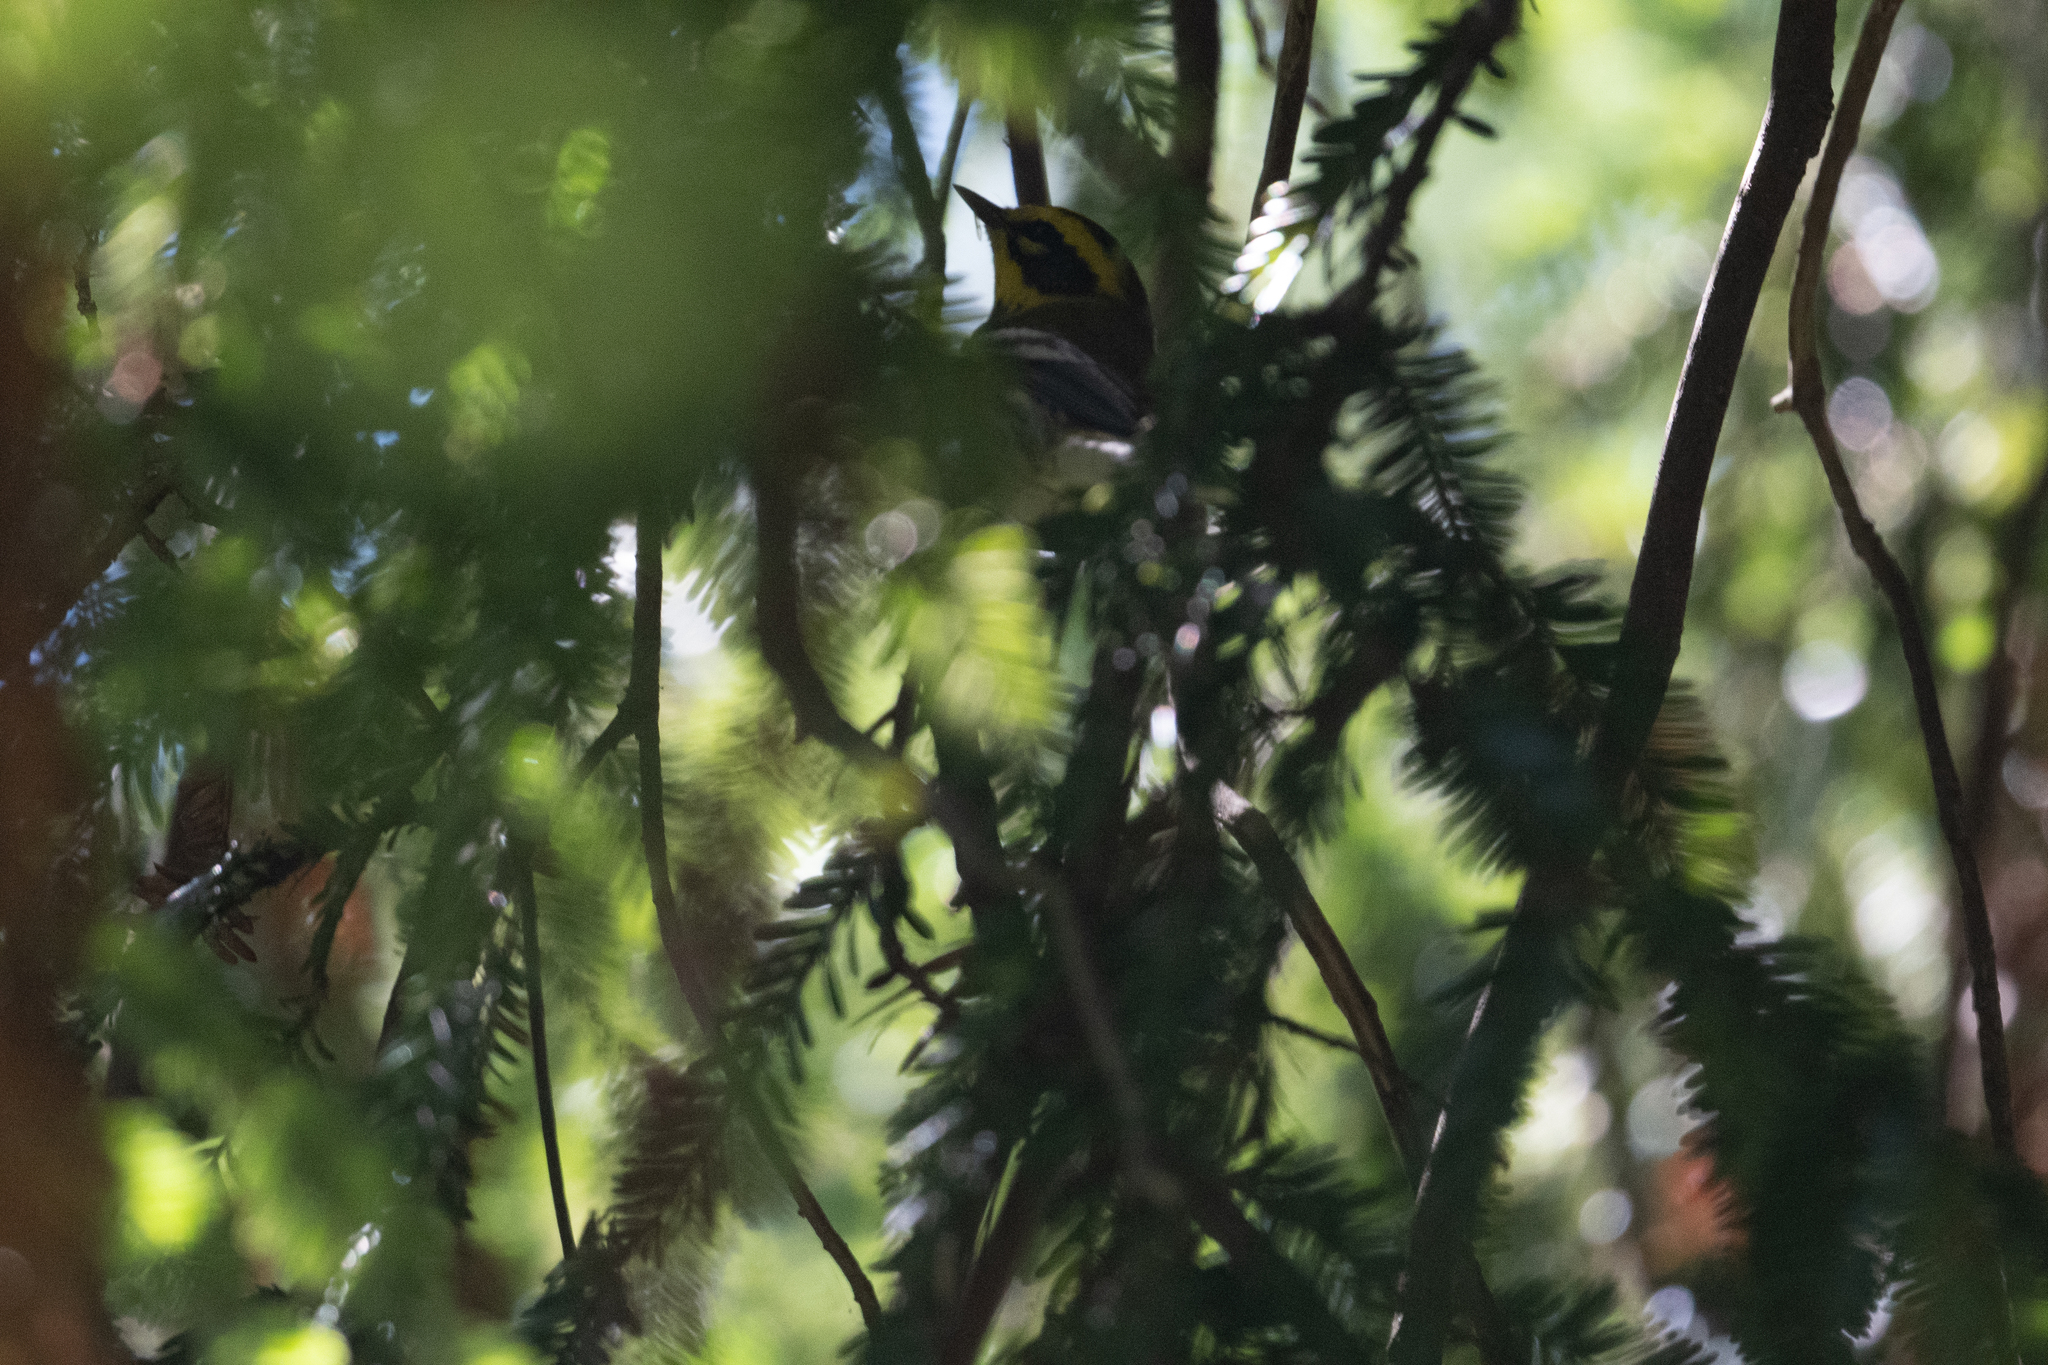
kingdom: Animalia
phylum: Chordata
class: Aves
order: Passeriformes
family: Parulidae
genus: Setophaga
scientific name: Setophaga townsendi
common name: Townsend's warbler
